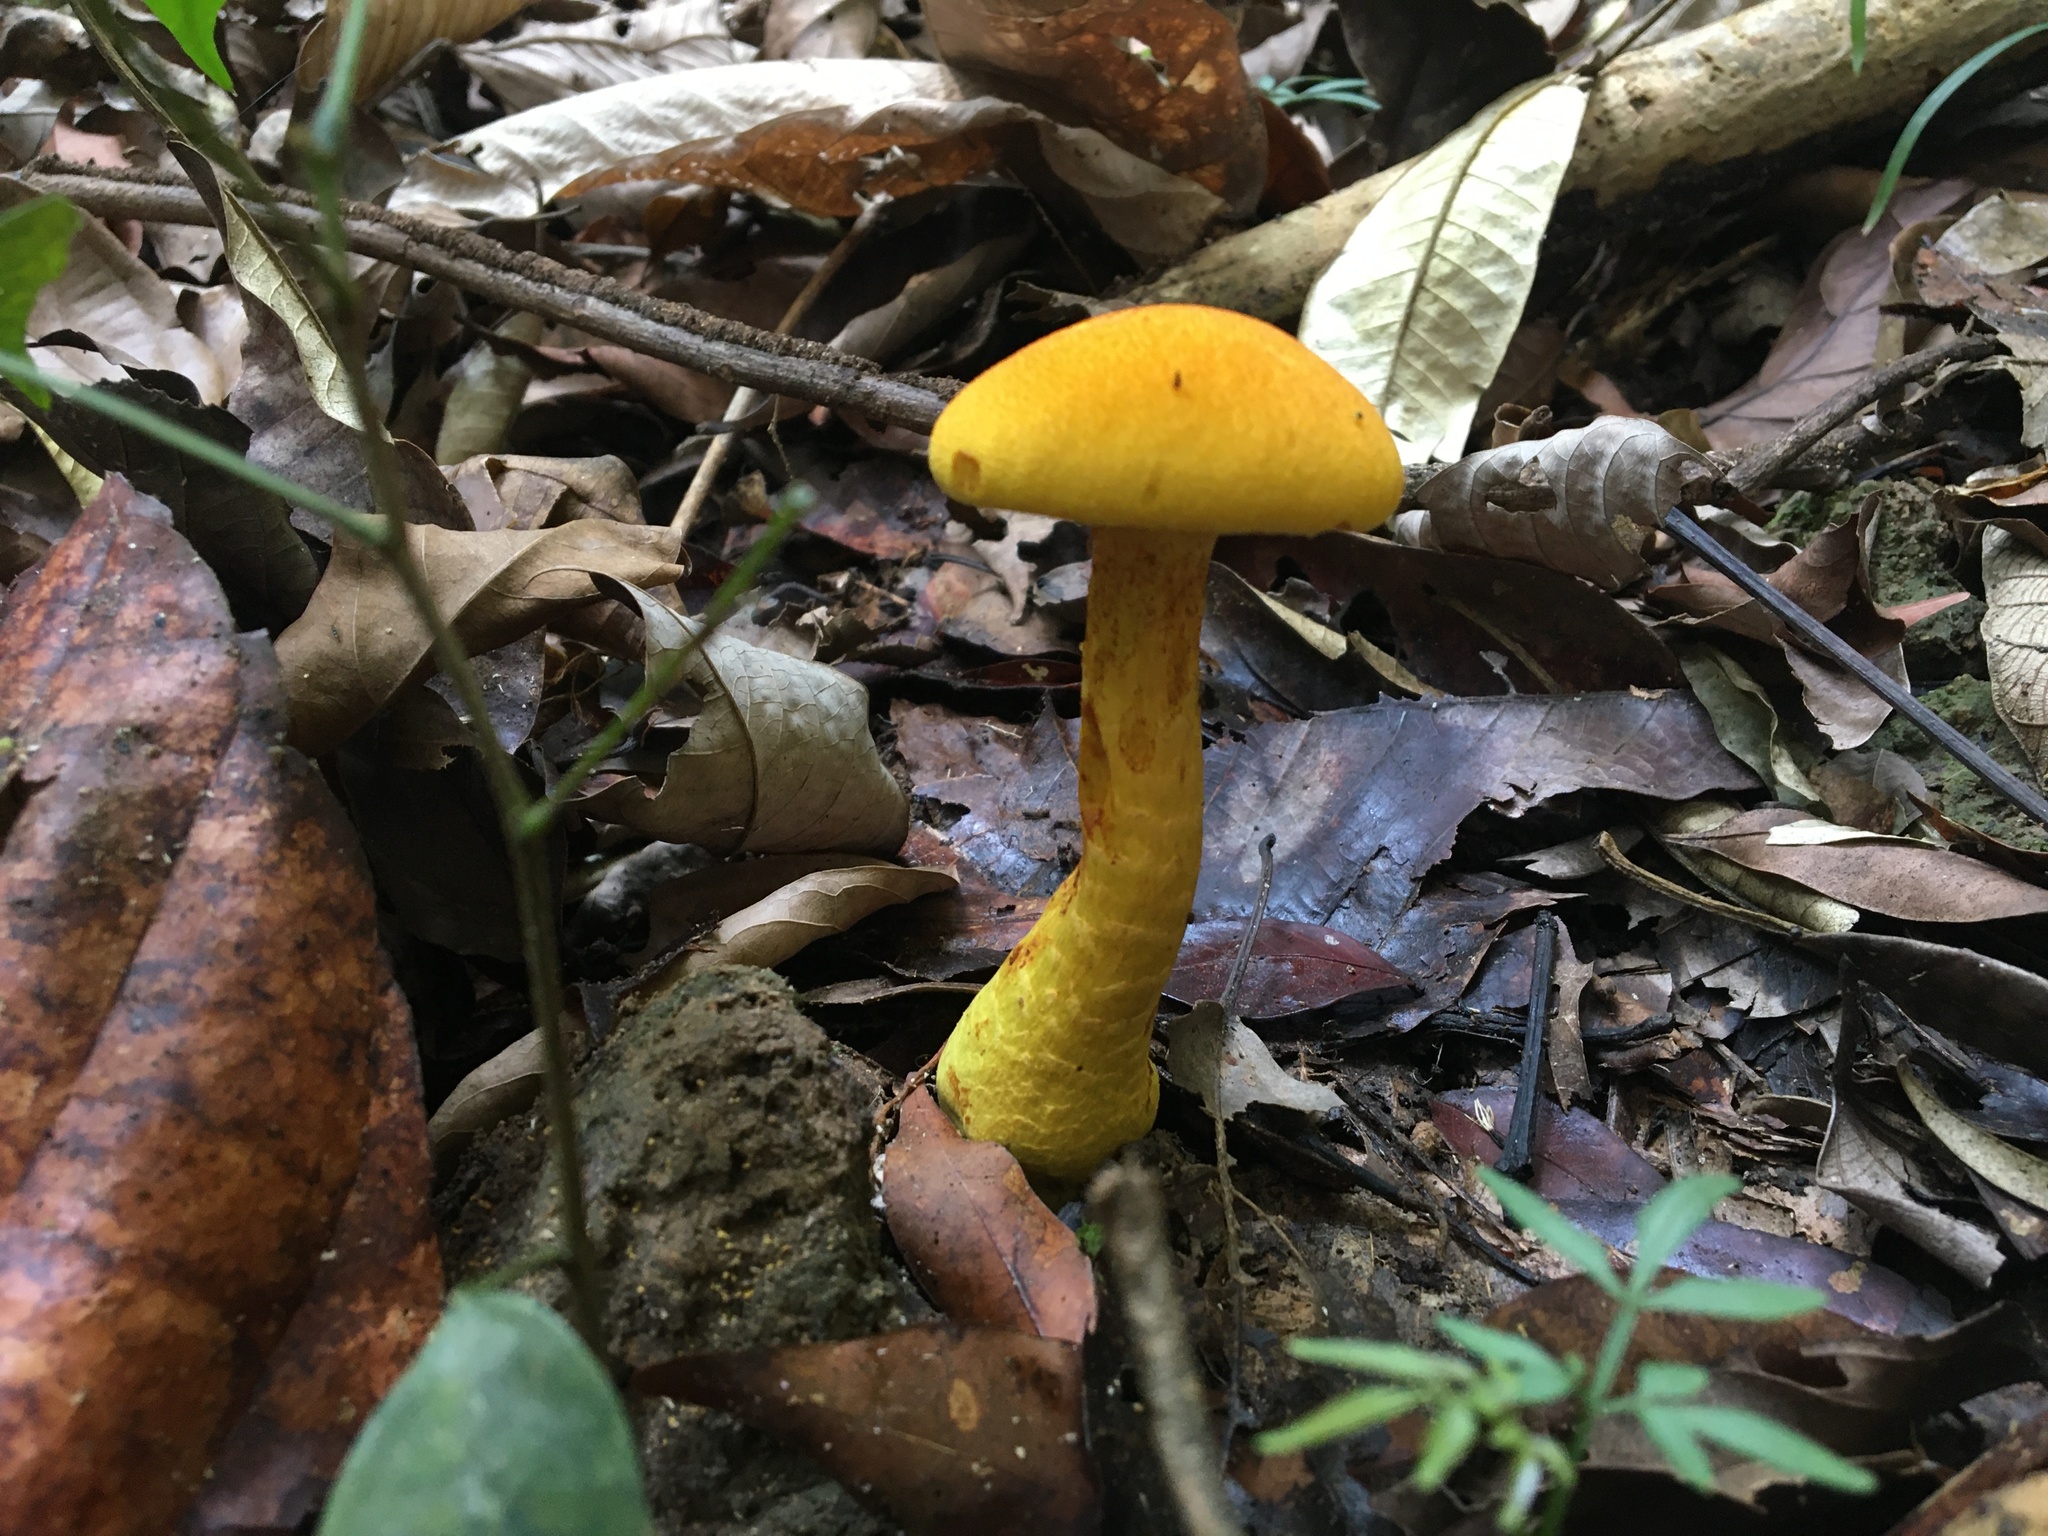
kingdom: Fungi
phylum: Basidiomycota
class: Agaricomycetes
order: Agaricales
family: Physalacriaceae
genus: Cyptotrama
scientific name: Cyptotrama chrysopepla
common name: Golden coincap
